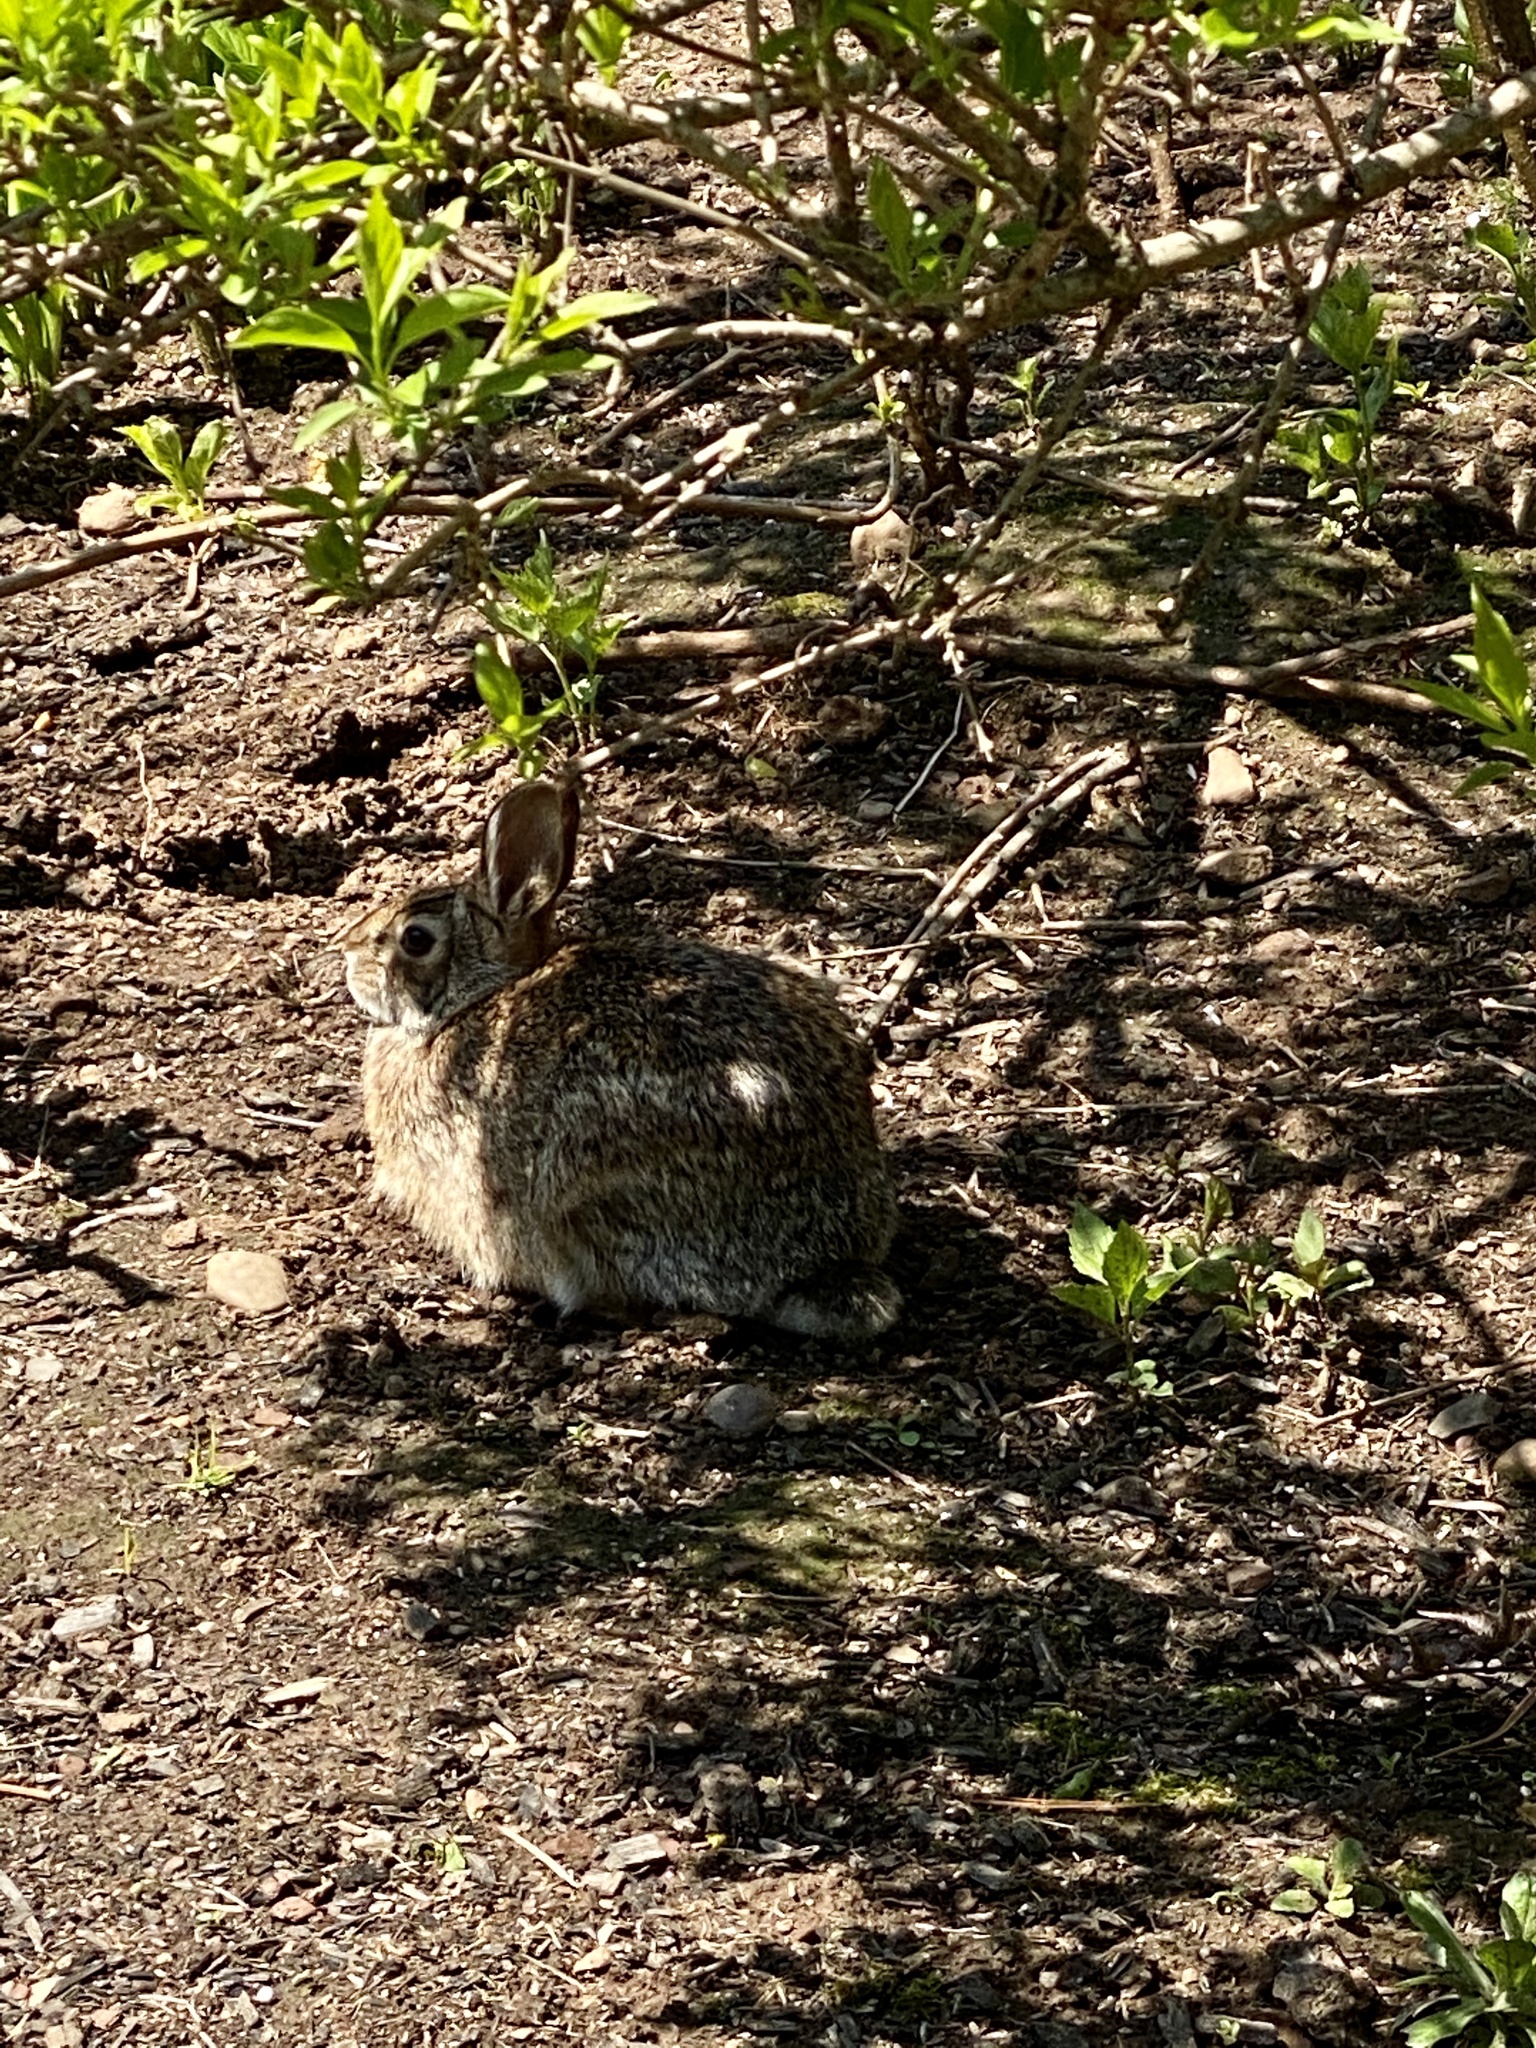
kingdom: Animalia
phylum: Chordata
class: Mammalia
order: Lagomorpha
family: Leporidae
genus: Sylvilagus
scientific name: Sylvilagus floridanus
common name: Eastern cottontail
